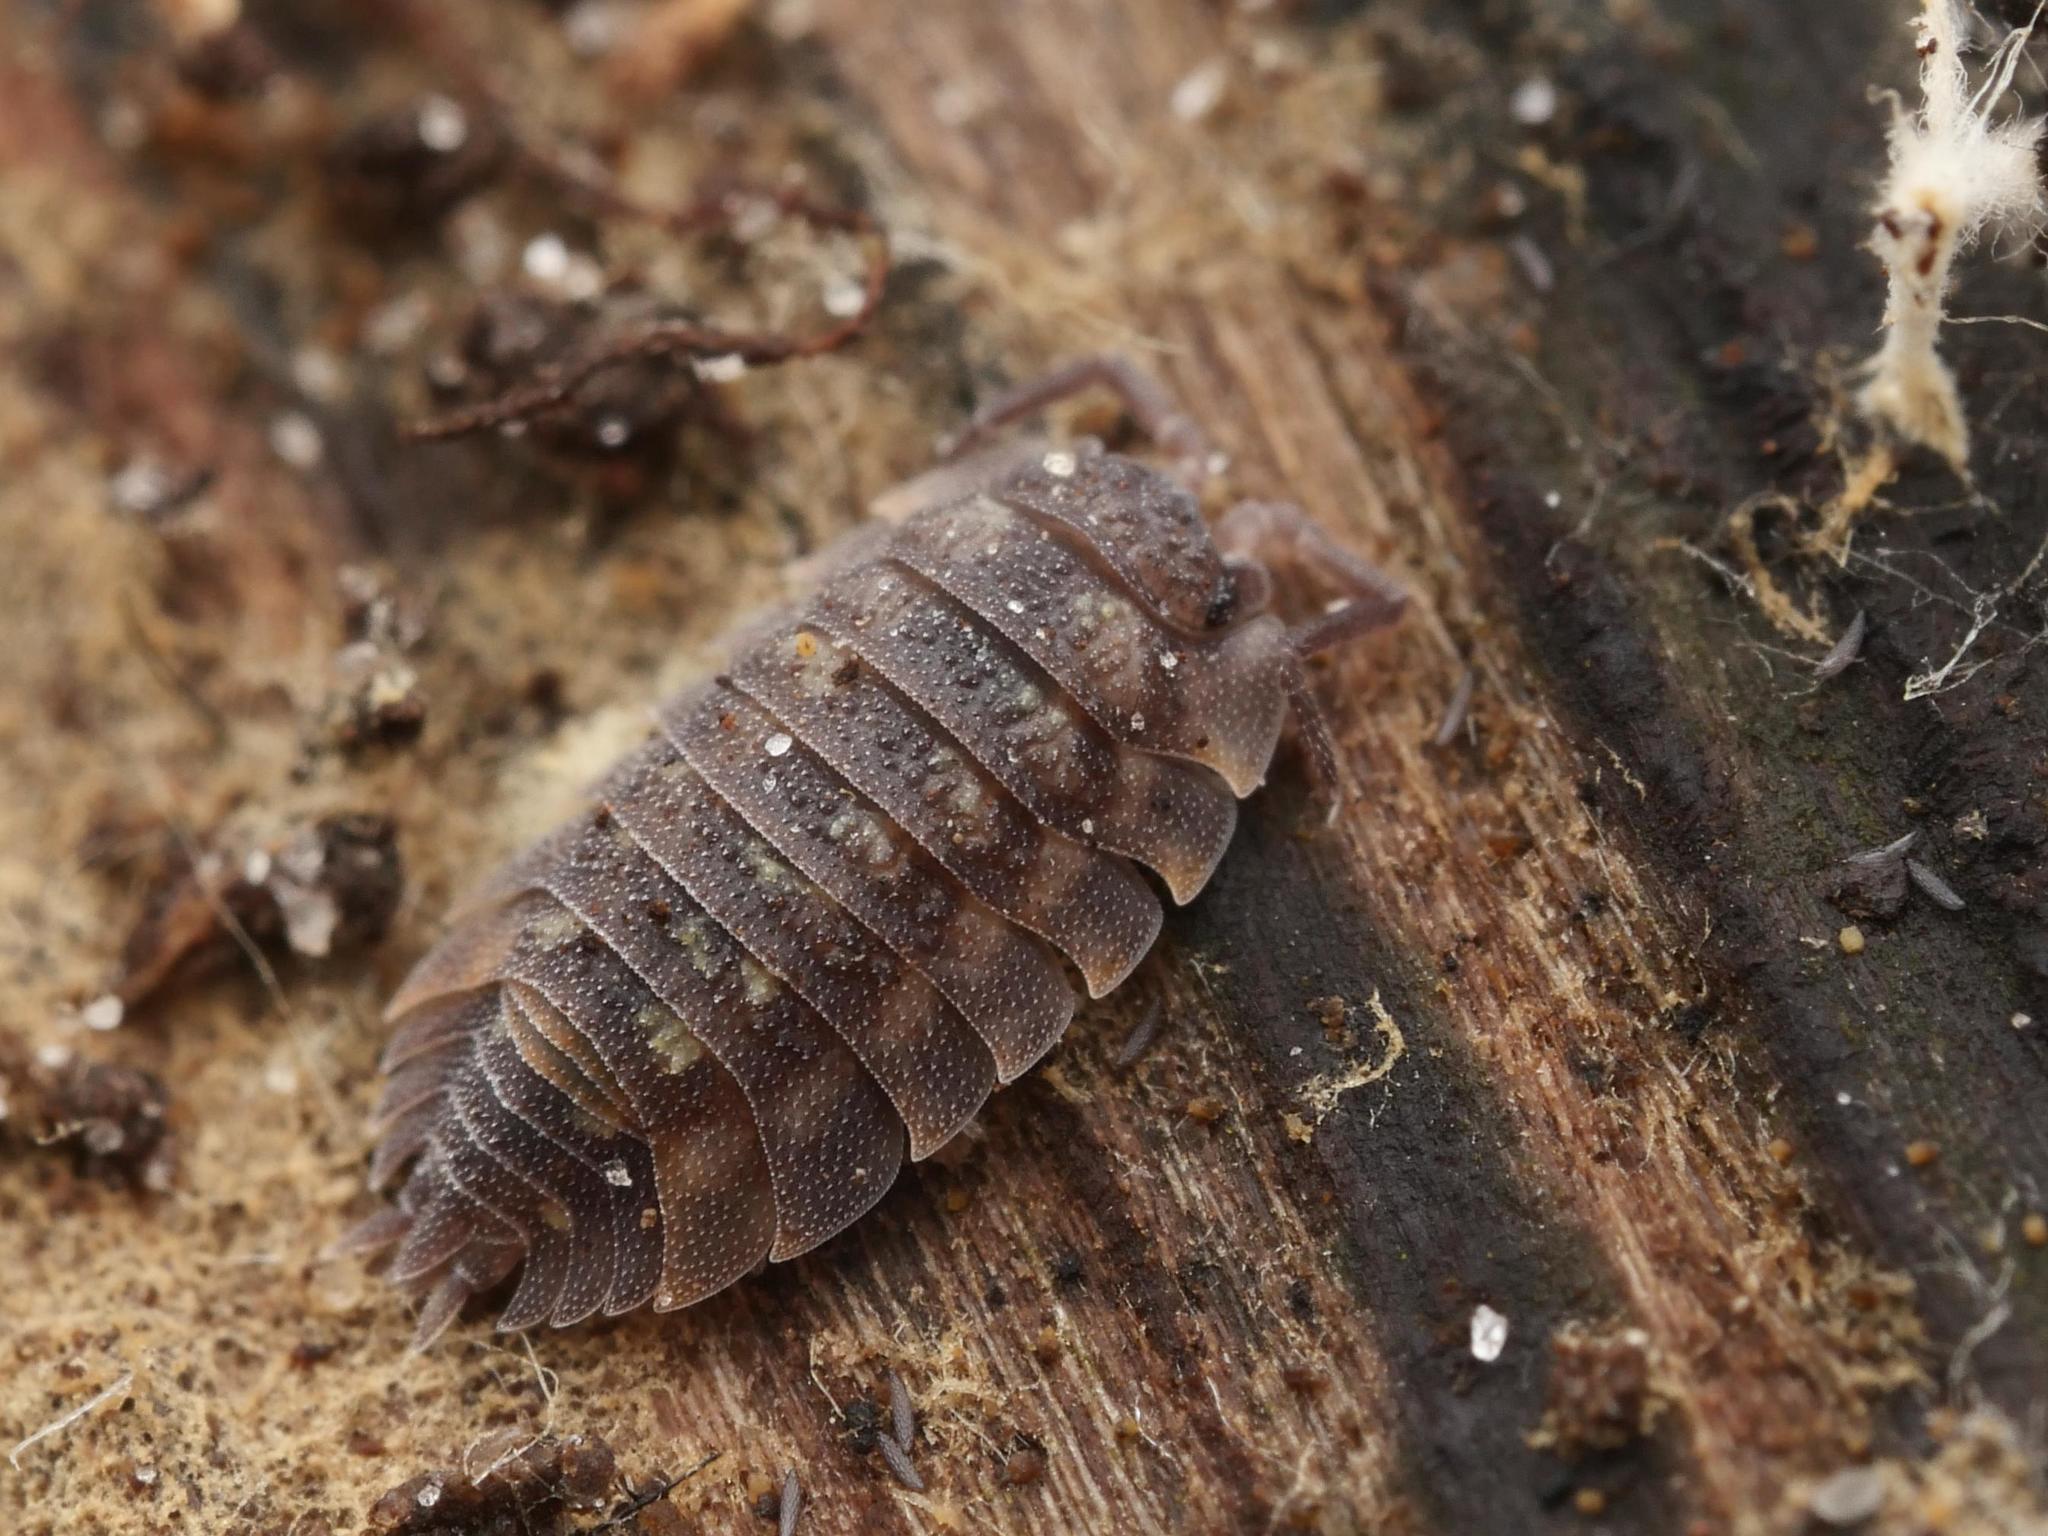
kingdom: Animalia
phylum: Arthropoda
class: Malacostraca
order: Isopoda
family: Oniscidae
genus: Oniscus
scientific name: Oniscus asellus
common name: Common shiny woodlouse
